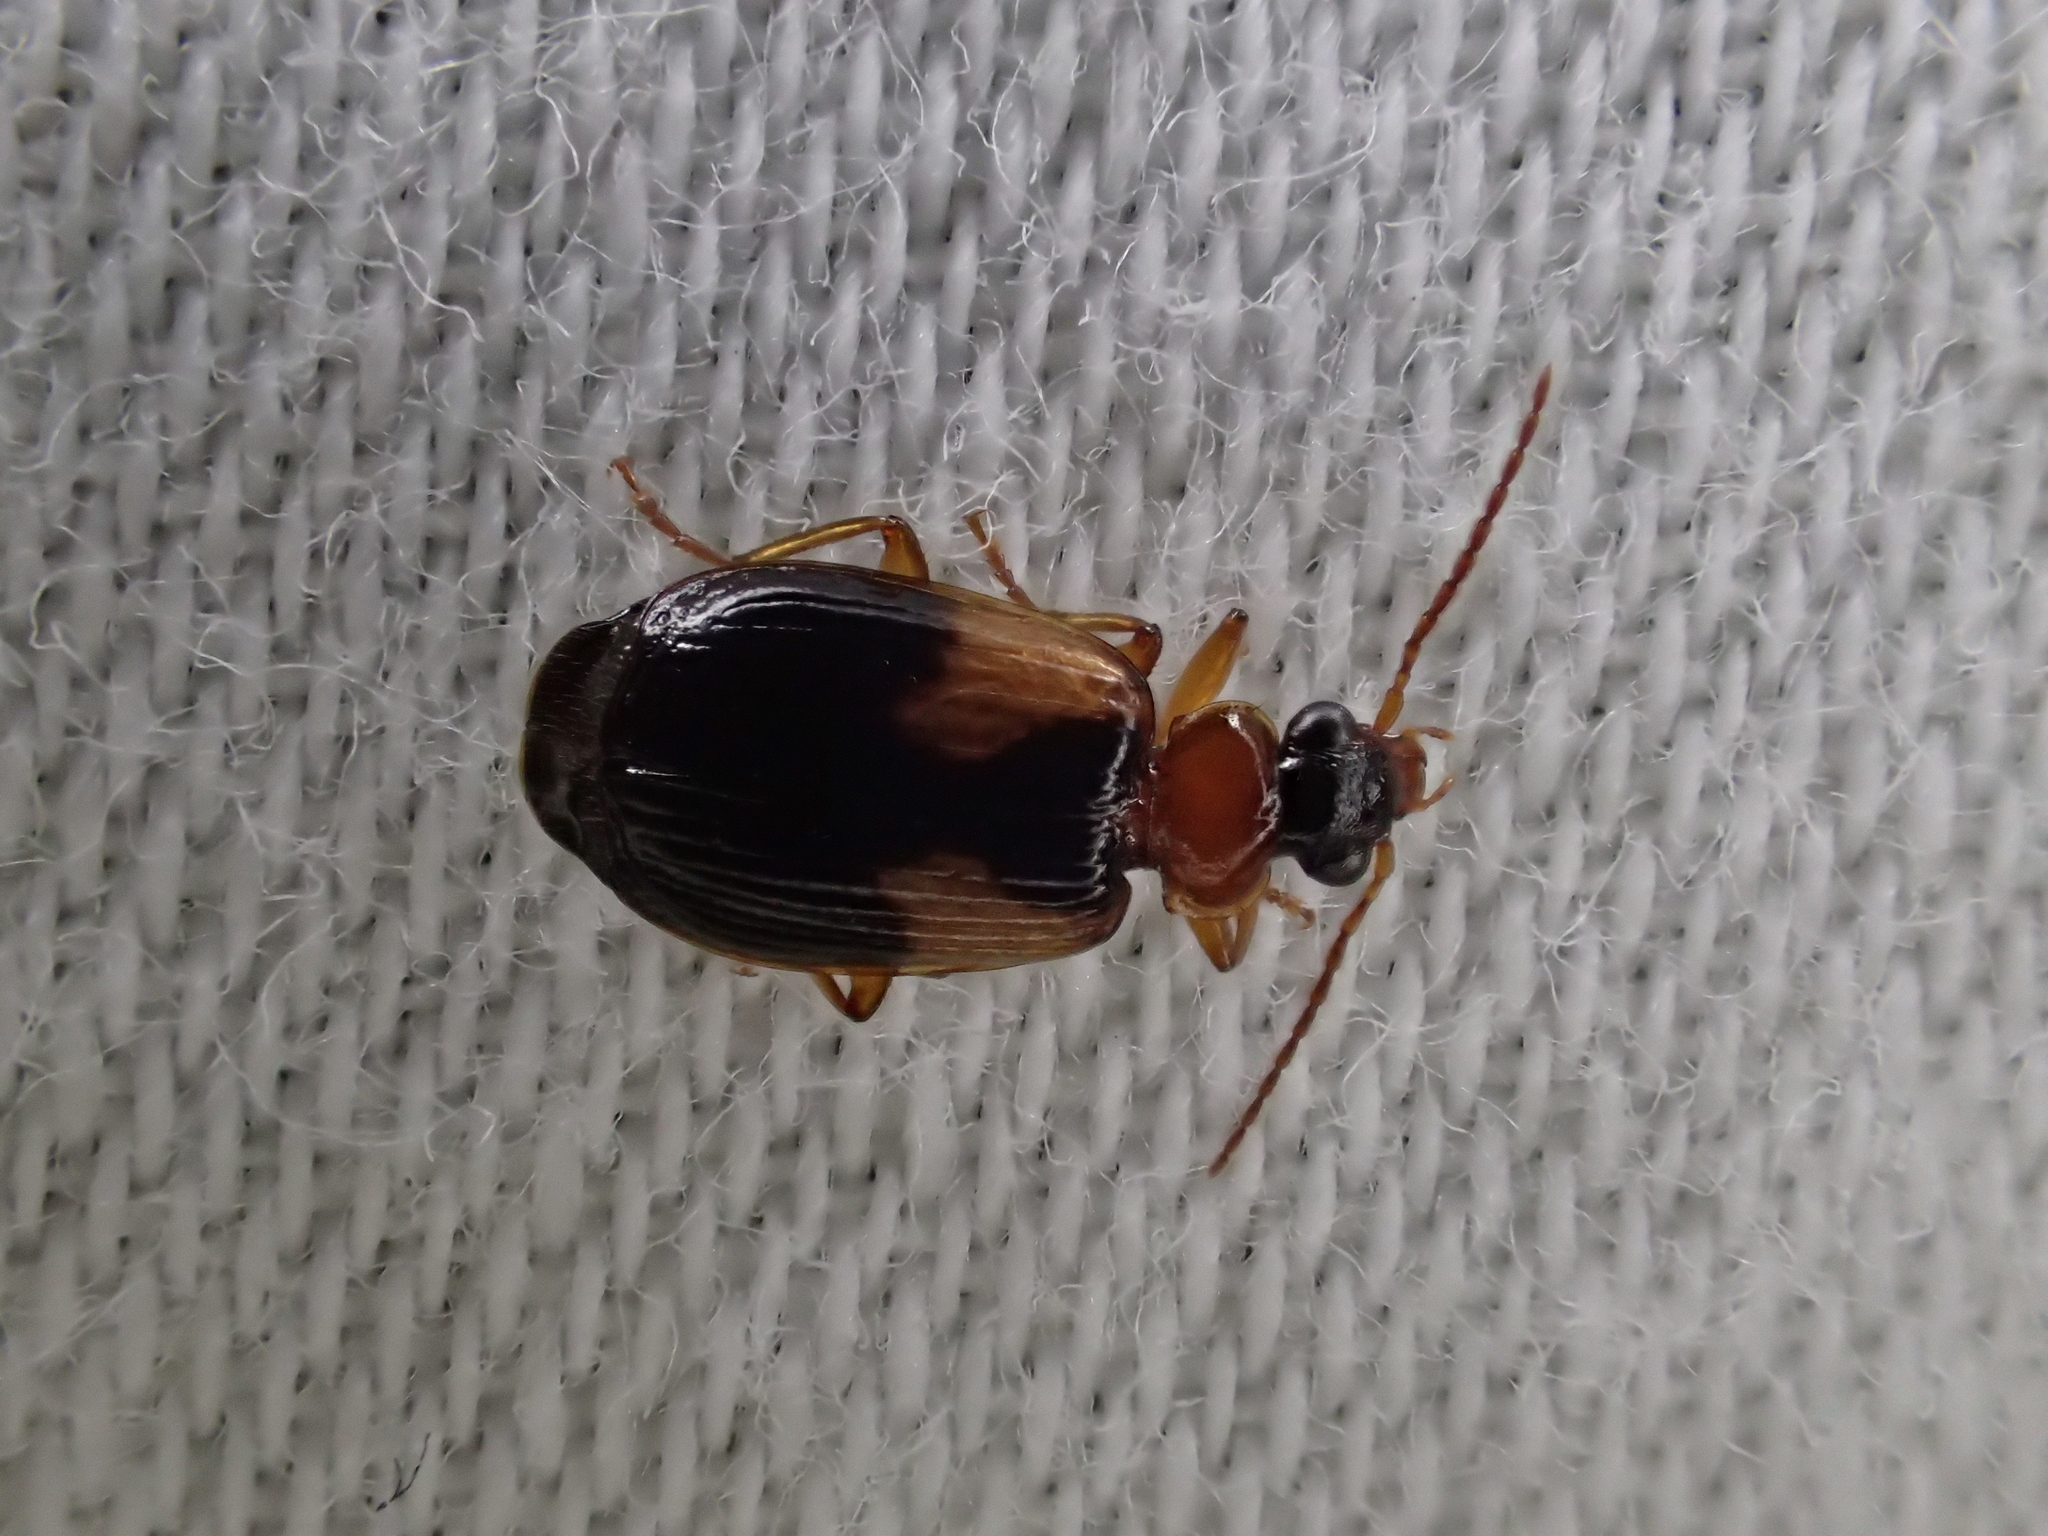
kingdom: Animalia
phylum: Arthropoda
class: Insecta
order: Coleoptera
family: Carabidae
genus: Lebia
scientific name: Lebia scapularis
